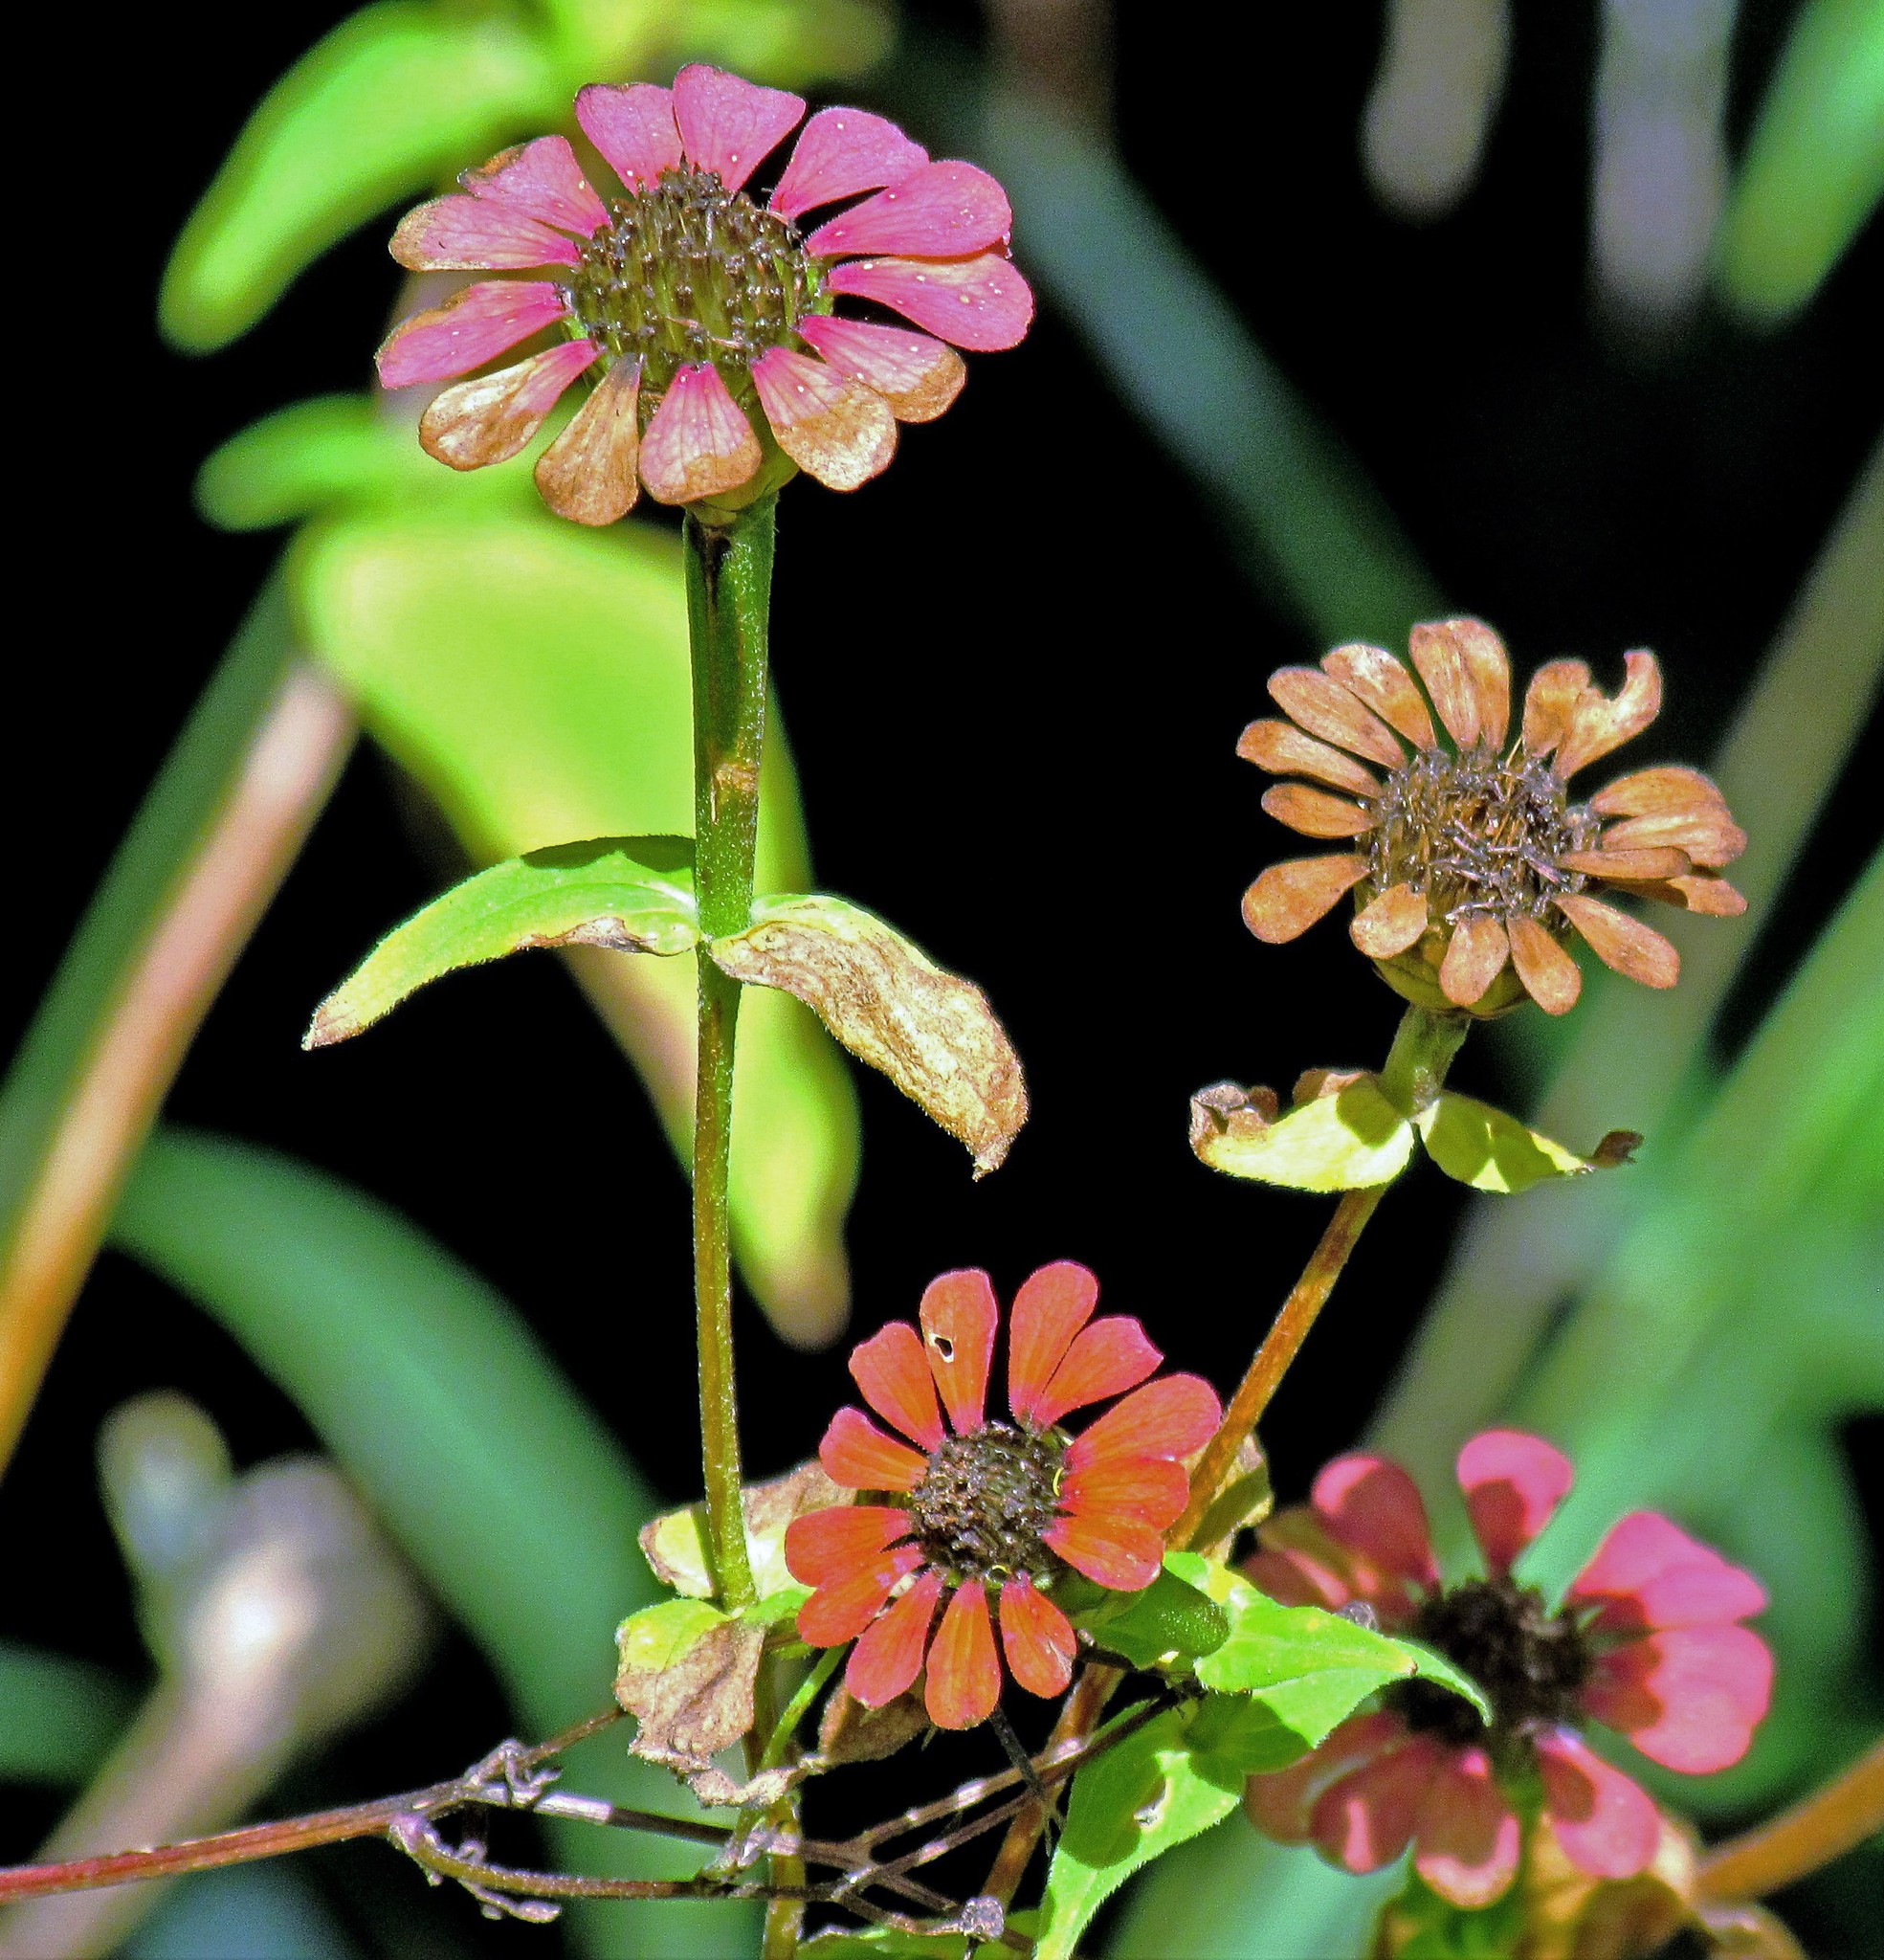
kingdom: Plantae
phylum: Tracheophyta
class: Magnoliopsida
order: Asterales
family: Asteraceae
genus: Zinnia
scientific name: Zinnia peruviana
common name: Peruvian zinnia
